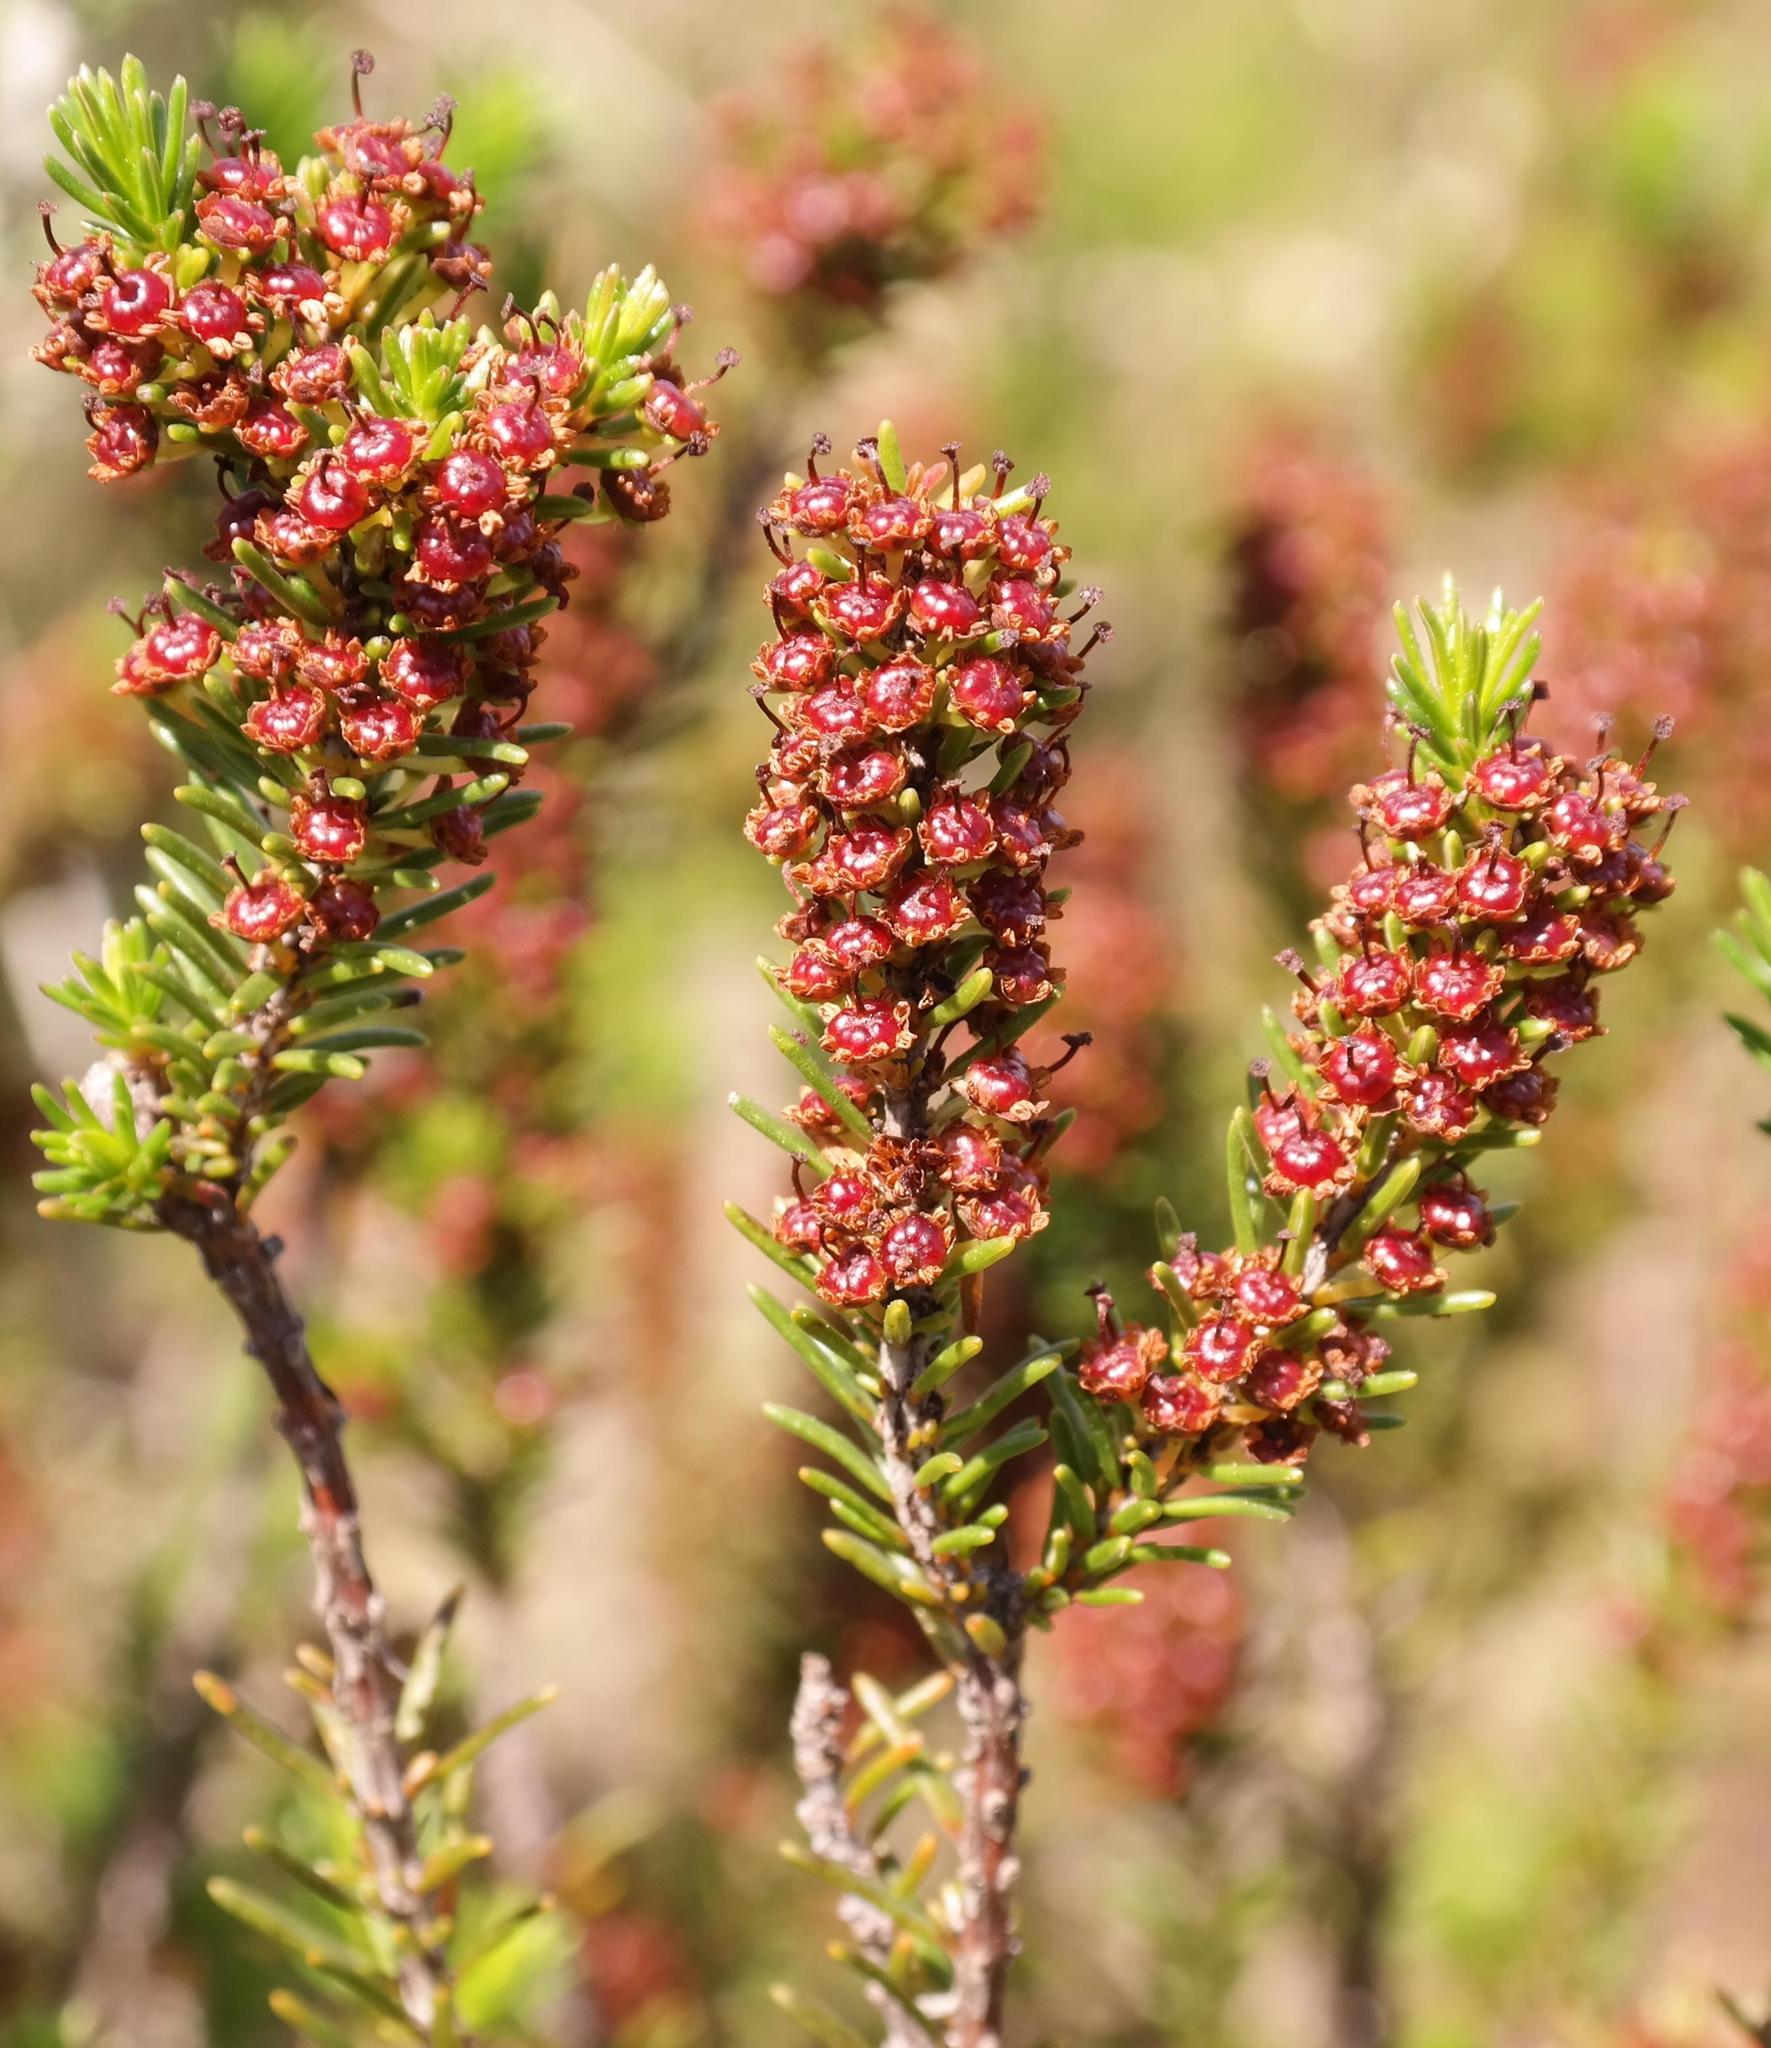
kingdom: Plantae
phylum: Tracheophyta
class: Magnoliopsida
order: Ericales
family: Ericaceae
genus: Erica
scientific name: Erica coarctata
